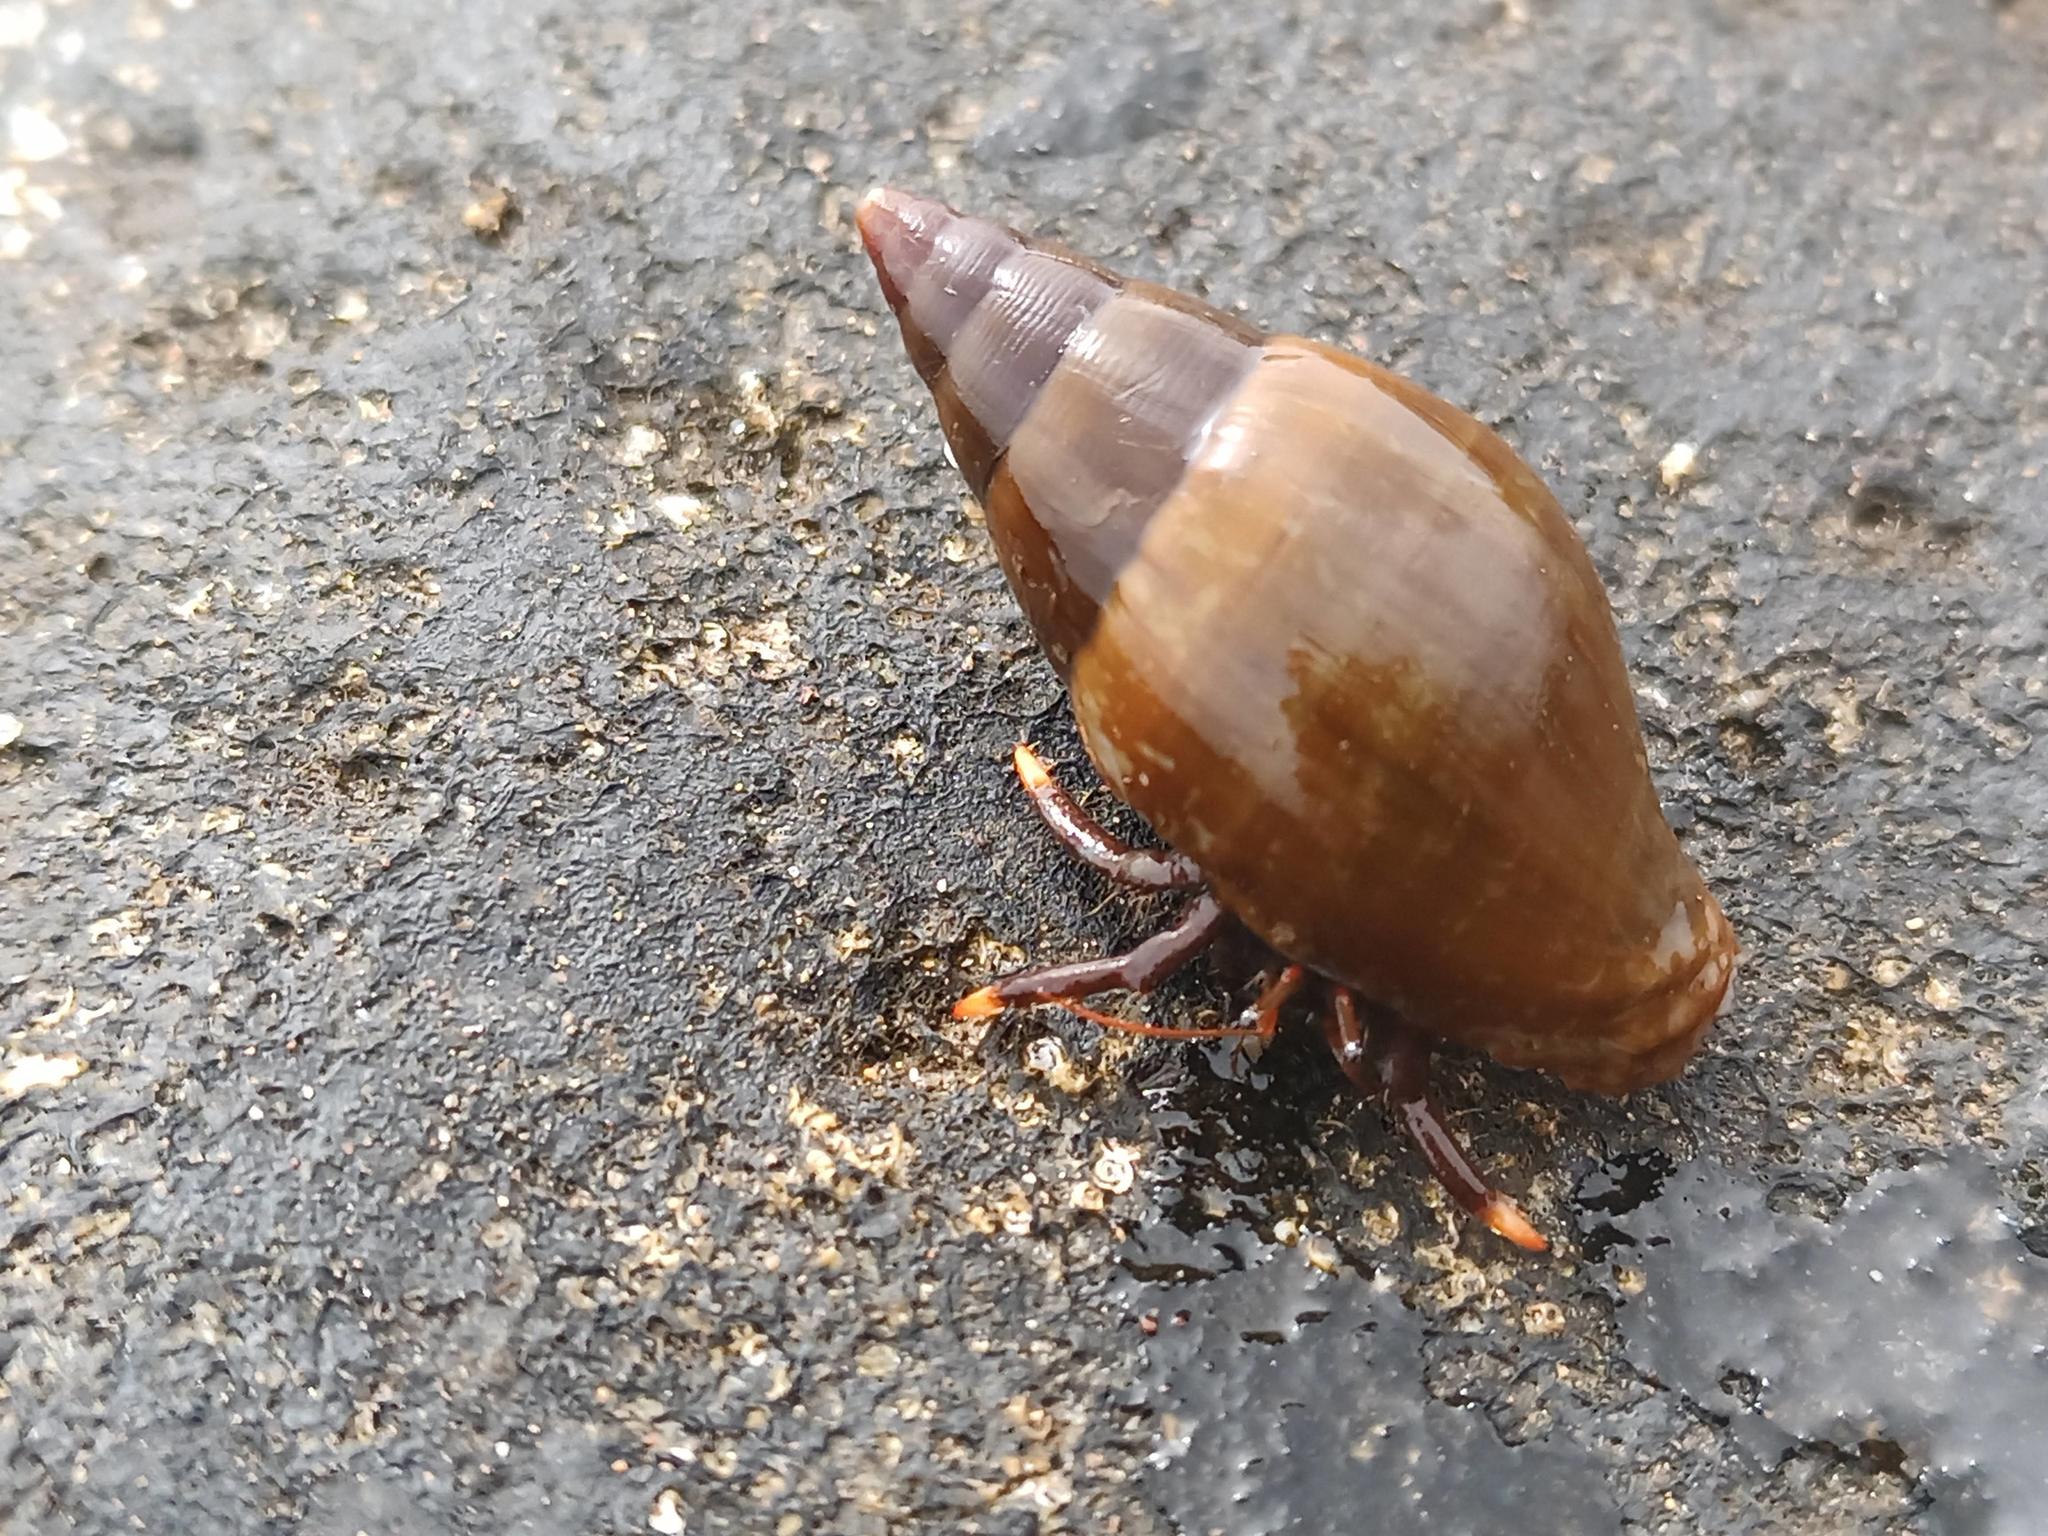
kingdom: Animalia
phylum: Arthropoda
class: Malacostraca
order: Decapoda
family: Diogenidae
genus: Clibanarius
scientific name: Clibanarius aequabilis
